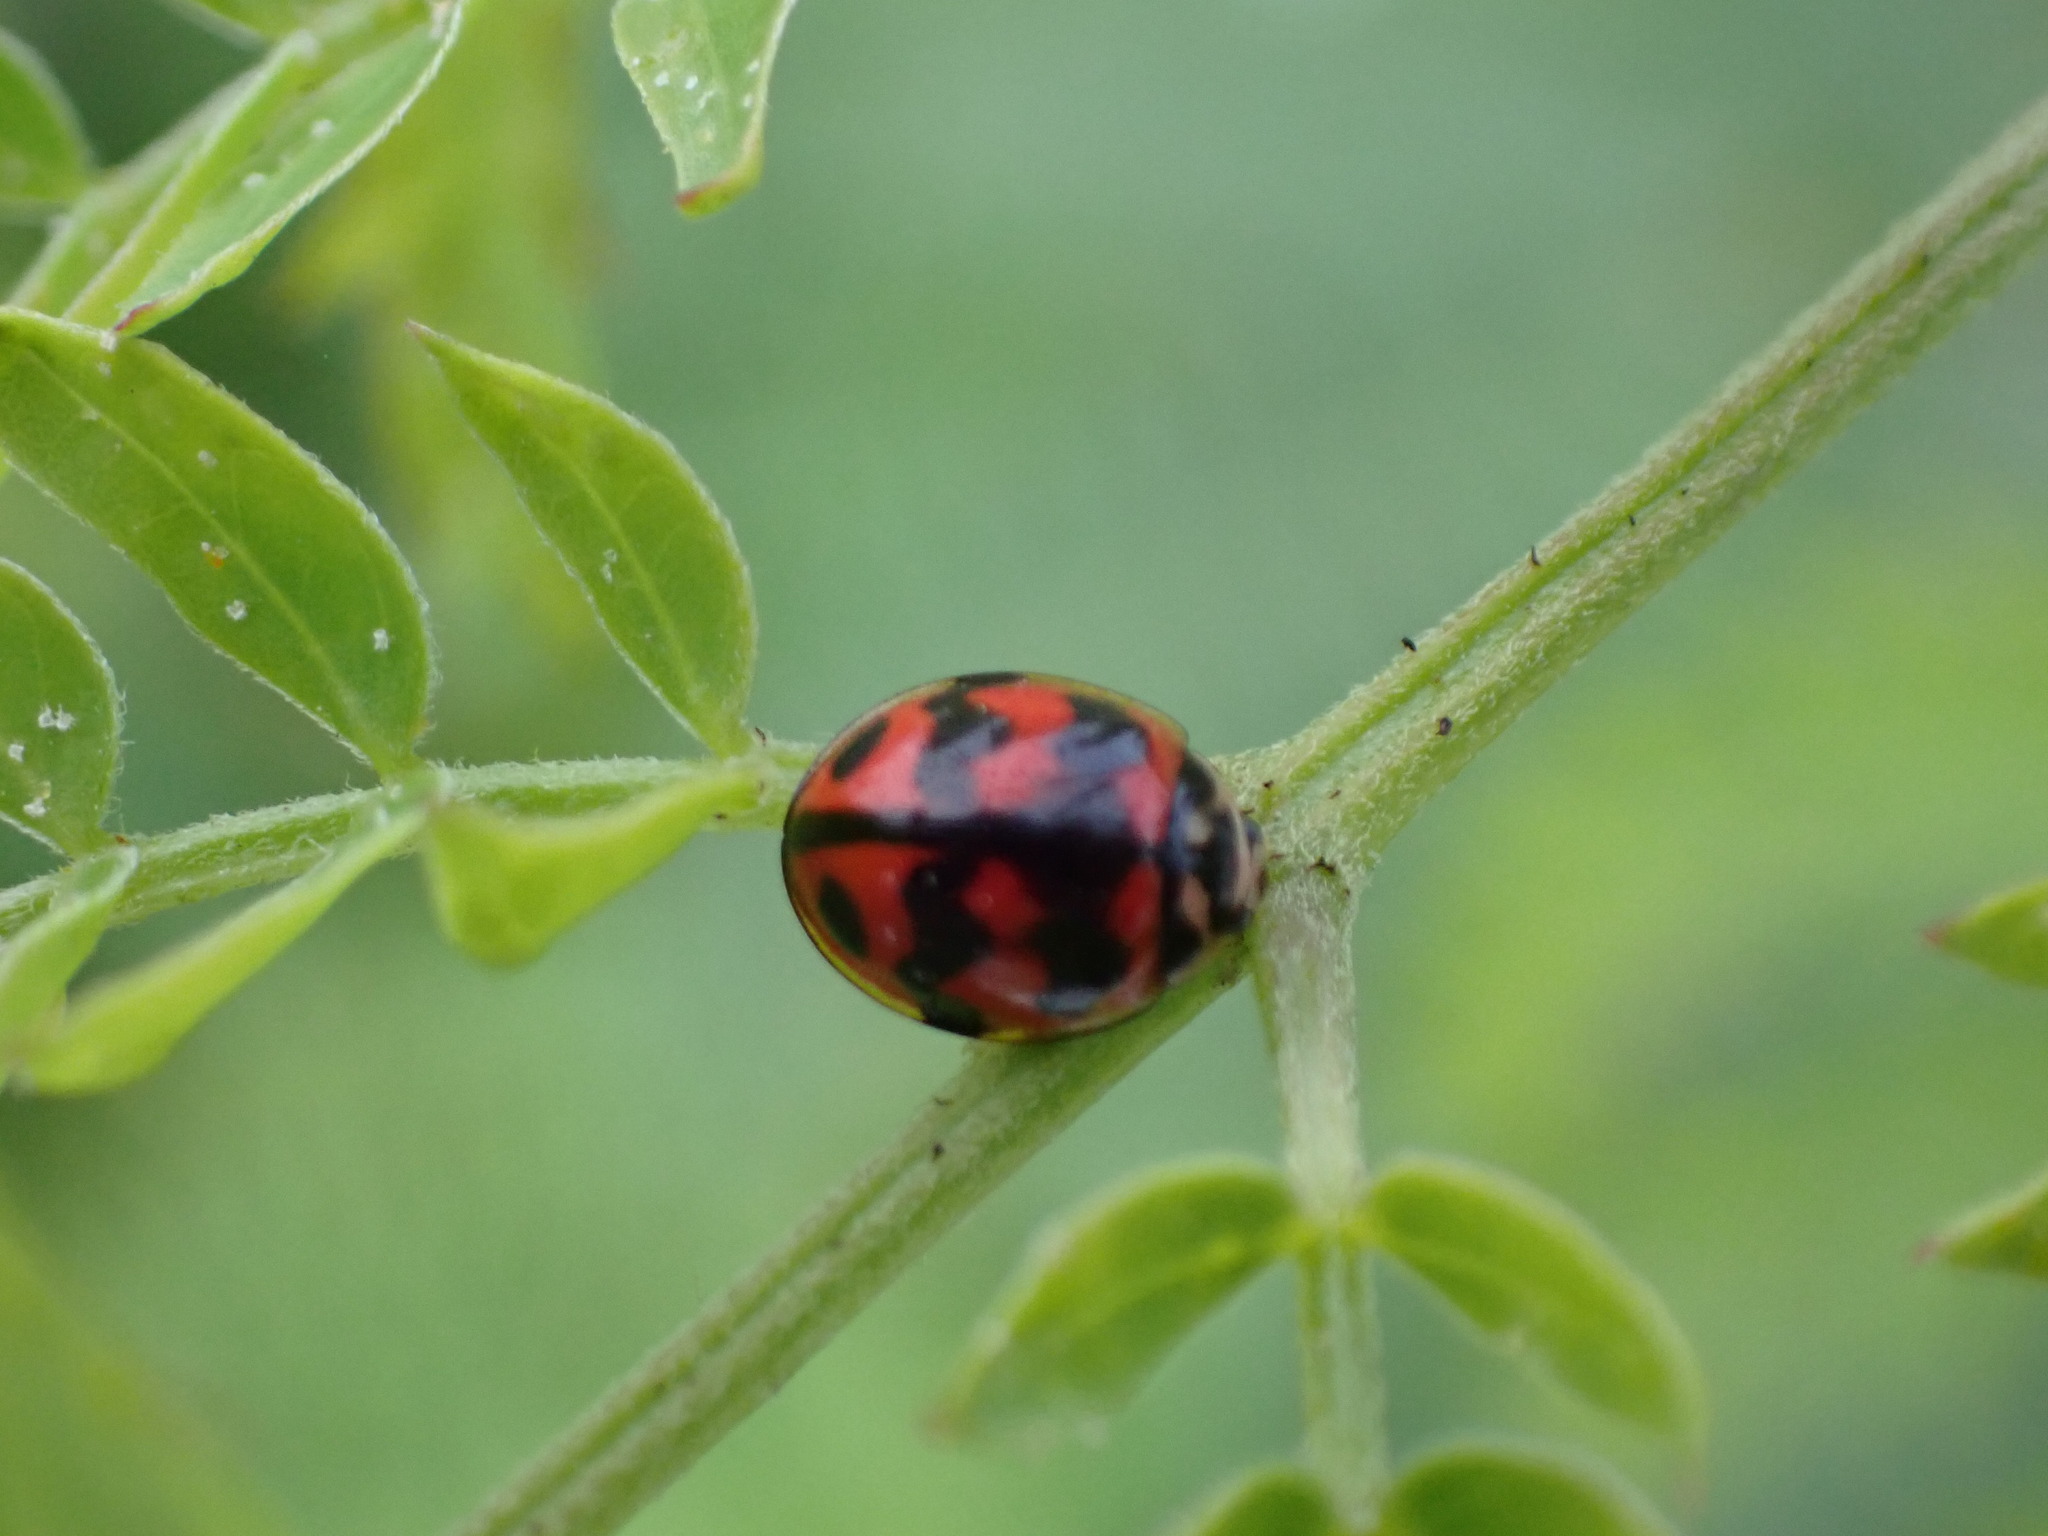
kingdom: Animalia
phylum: Arthropoda
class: Insecta
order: Coleoptera
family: Coccinellidae
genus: Cheilomenes
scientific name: Cheilomenes sexmaculata
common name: Ladybird beetle
